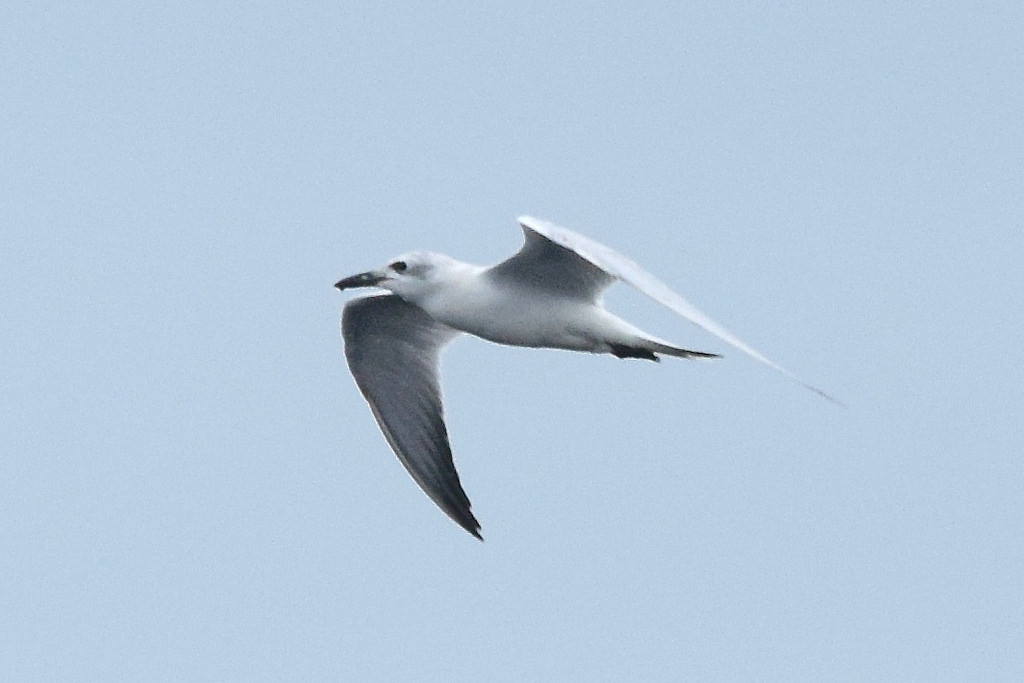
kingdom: Animalia
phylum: Chordata
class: Aves
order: Charadriiformes
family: Laridae
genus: Gelochelidon
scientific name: Gelochelidon nilotica
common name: Gull-billed tern
